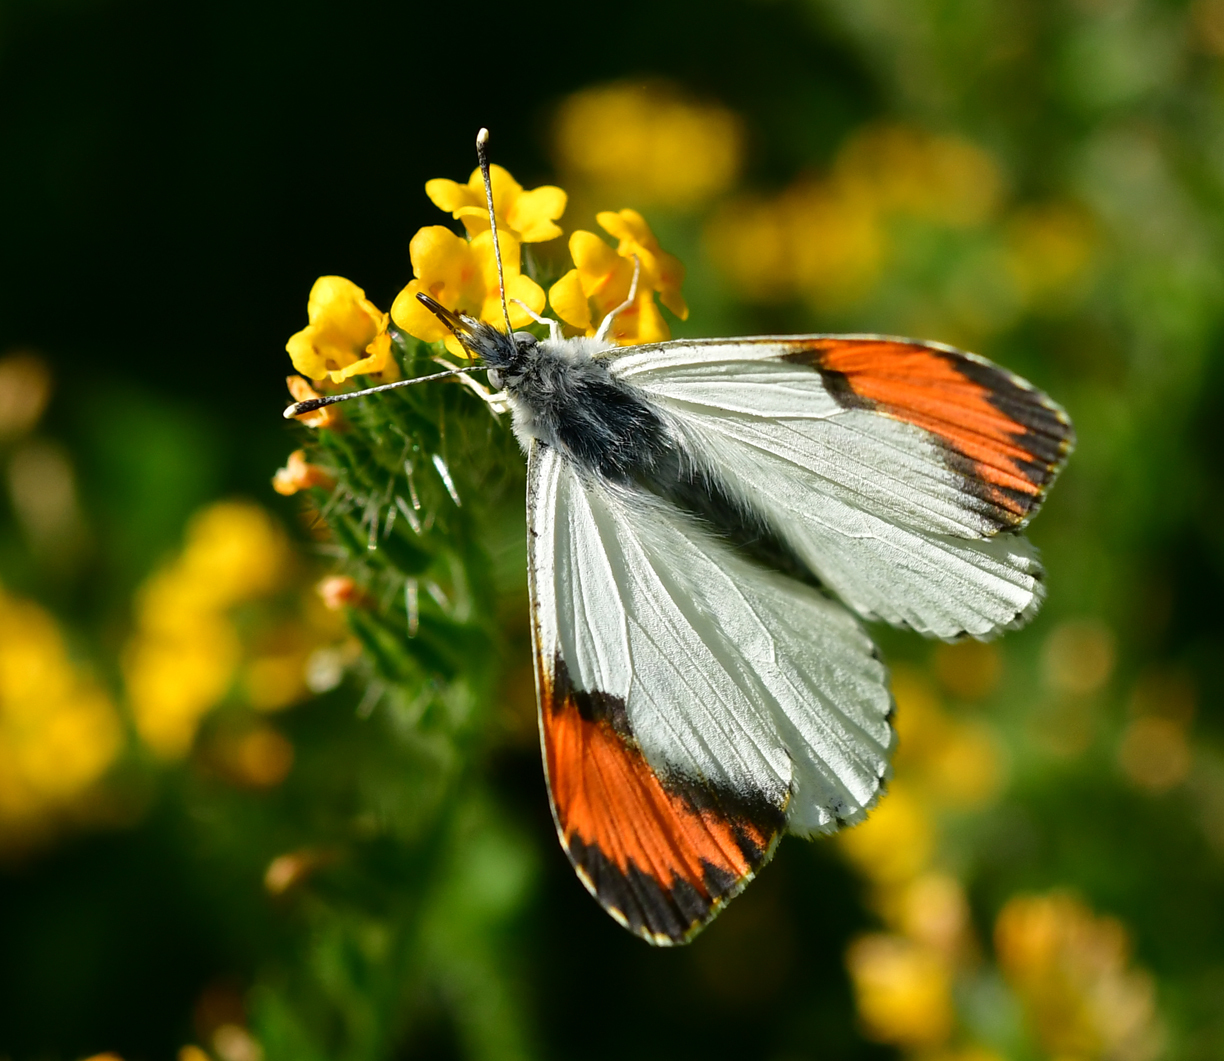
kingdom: Animalia
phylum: Arthropoda
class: Insecta
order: Lepidoptera
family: Pieridae
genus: Anthocharis
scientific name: Anthocharis sara
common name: Sara's orangetip
